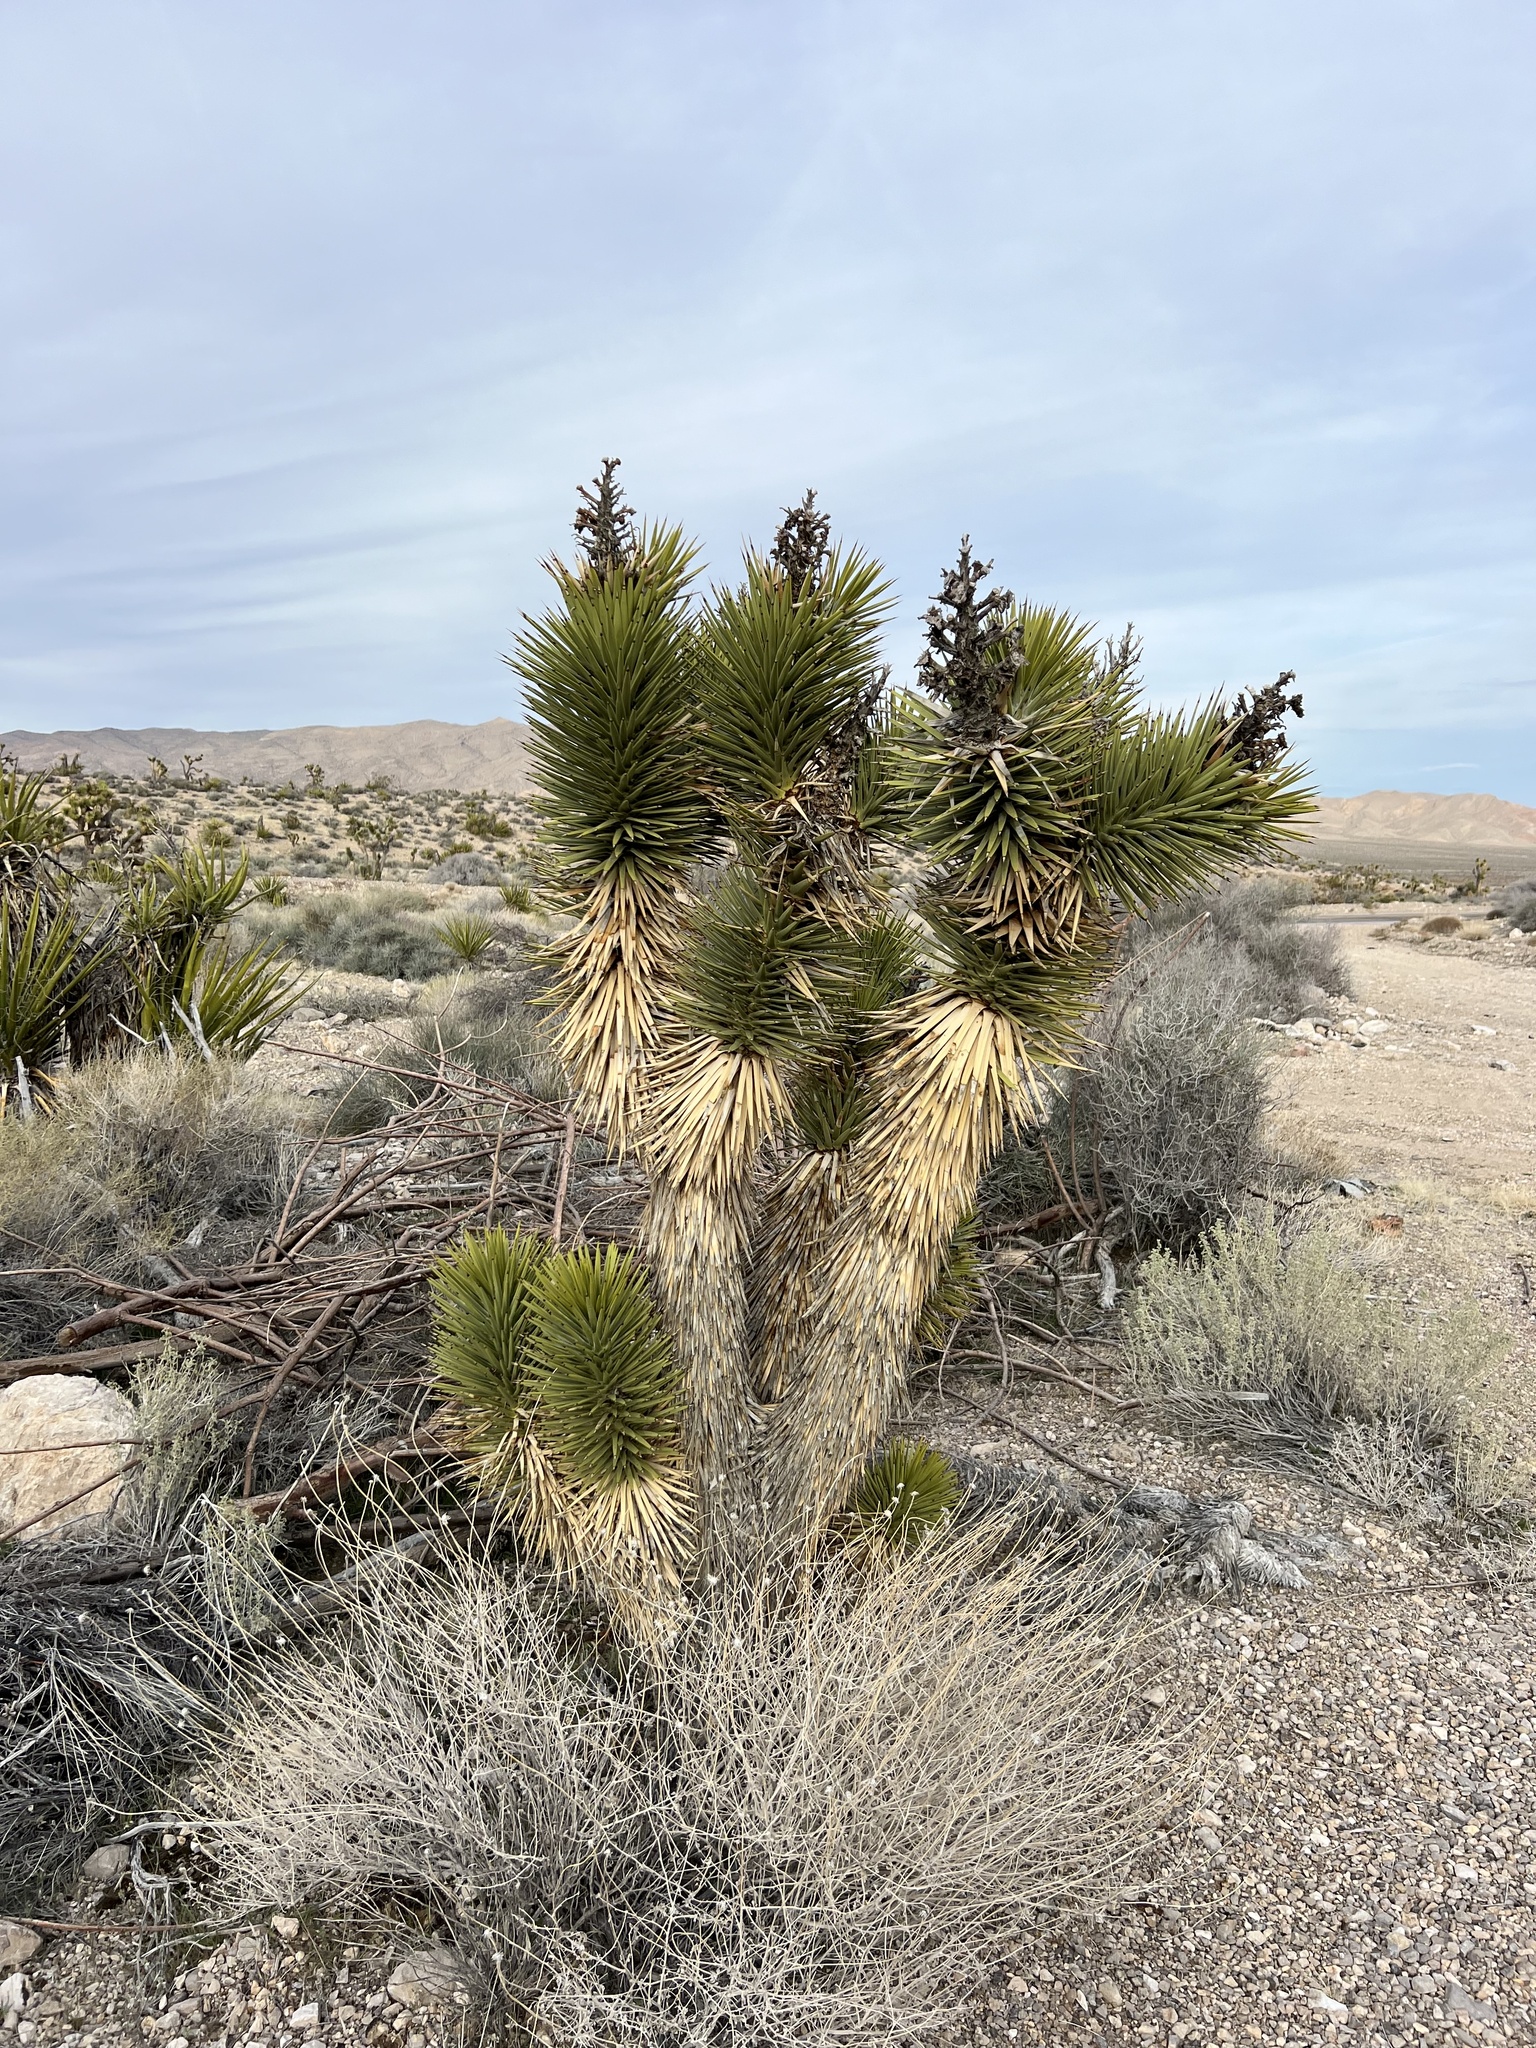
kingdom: Plantae
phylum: Tracheophyta
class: Liliopsida
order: Asparagales
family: Asparagaceae
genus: Yucca
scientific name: Yucca brevifolia
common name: Joshua tree
